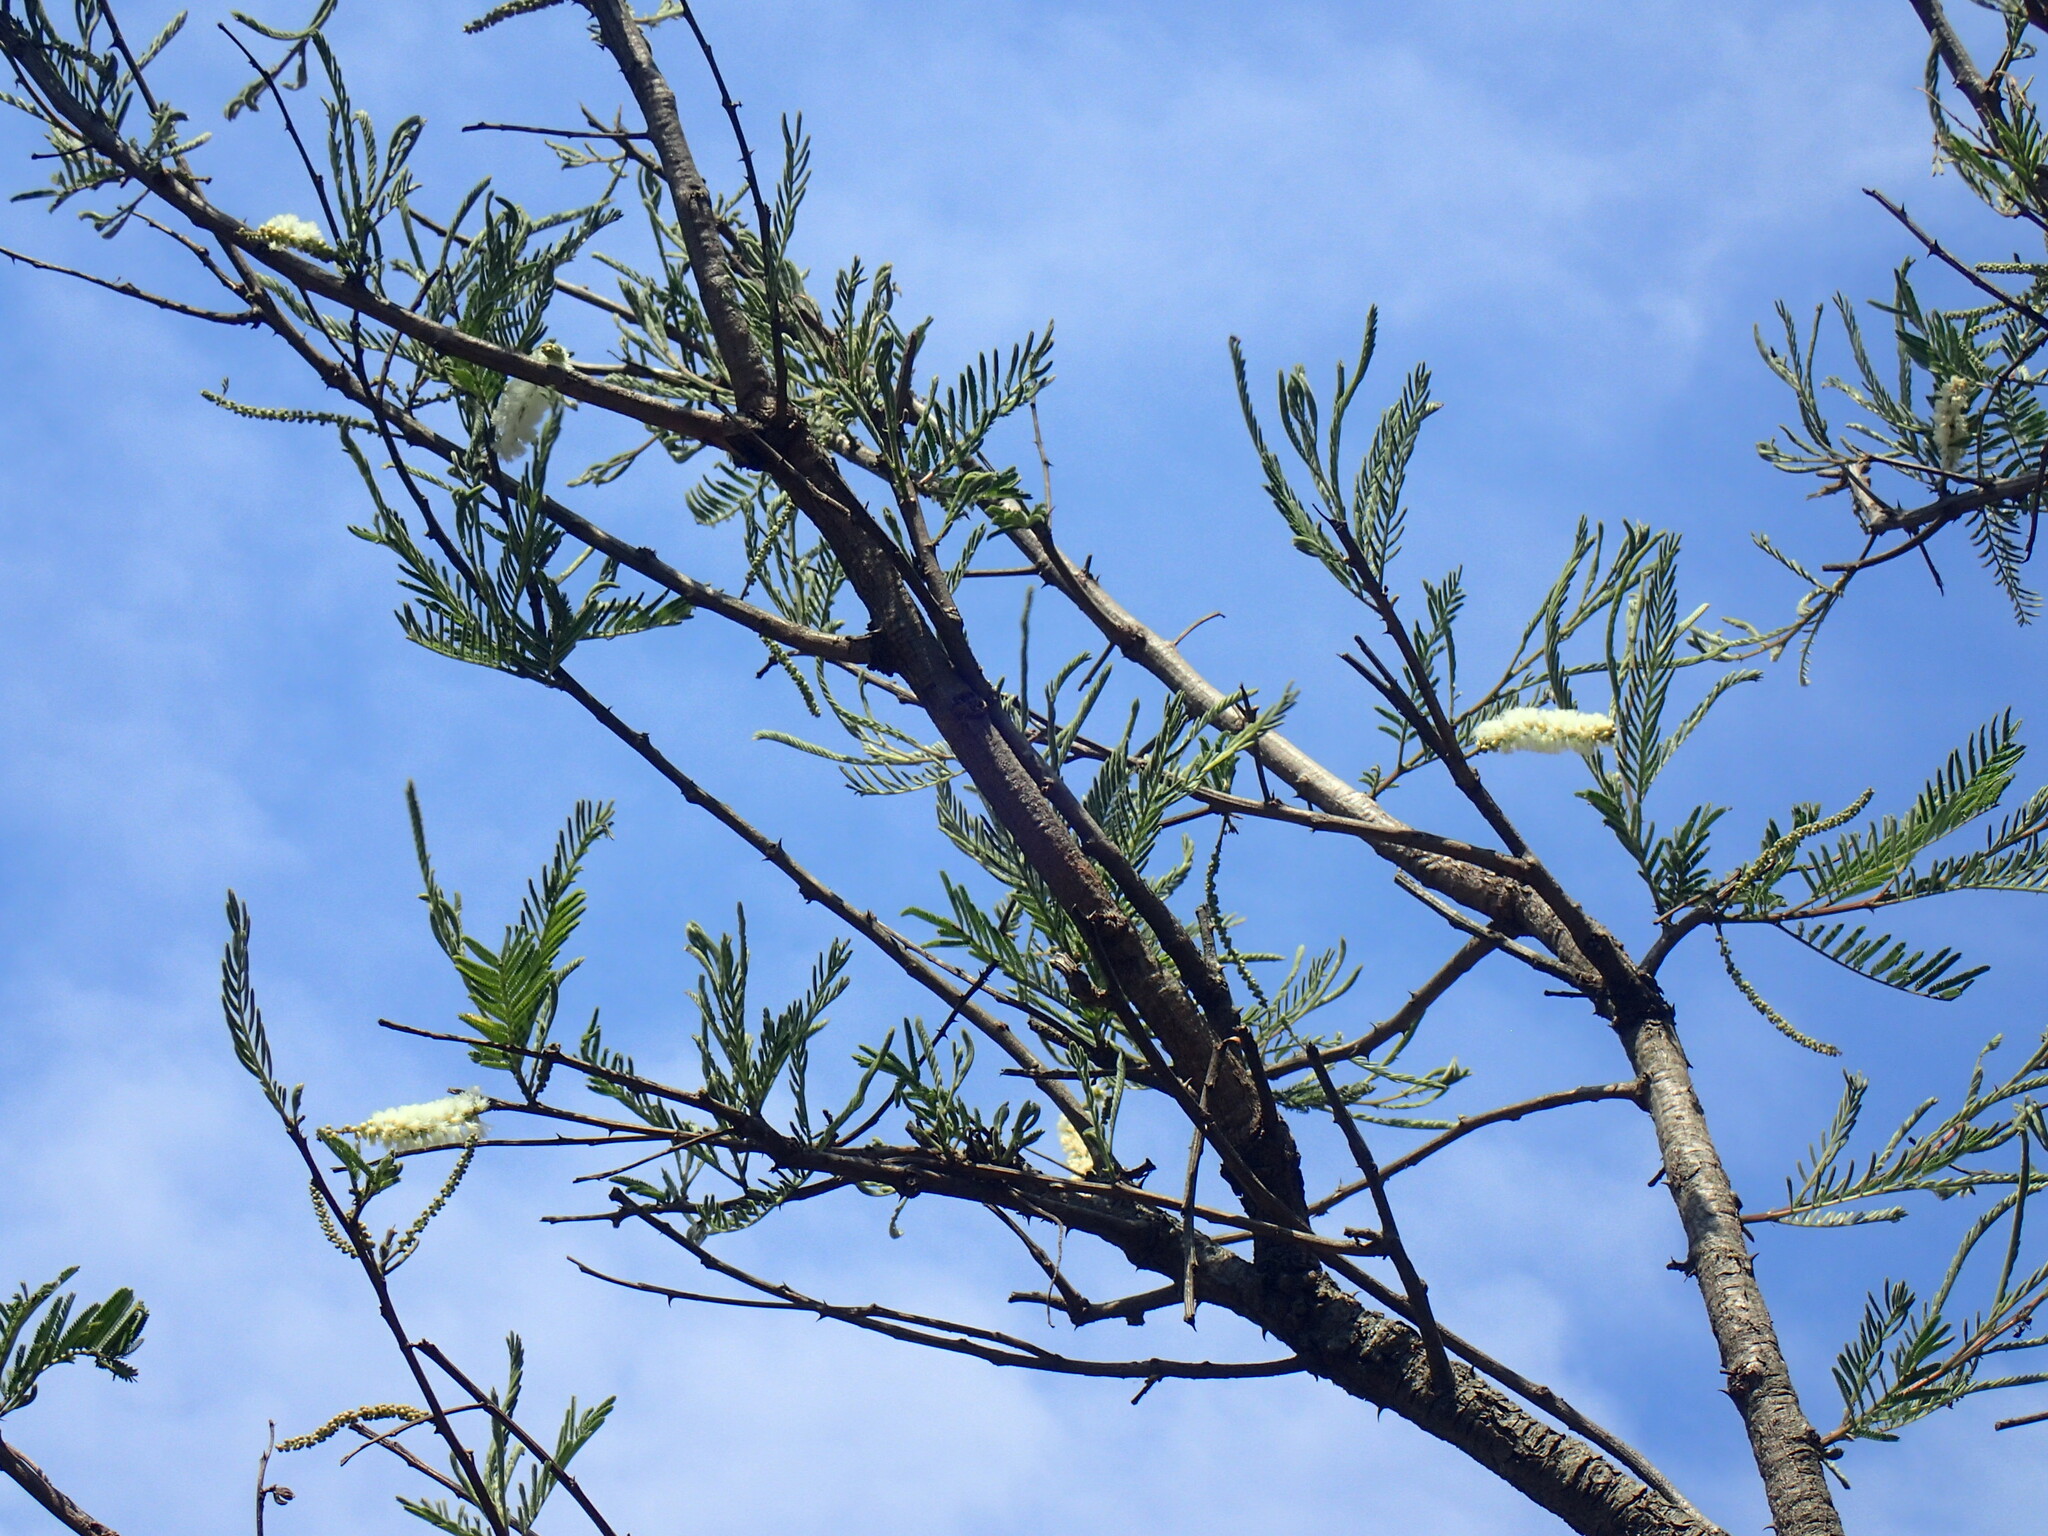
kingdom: Plantae
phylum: Tracheophyta
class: Magnoliopsida
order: Fabales
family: Fabaceae
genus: Senegalia
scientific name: Senegalia caffra
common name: Cat thorn
